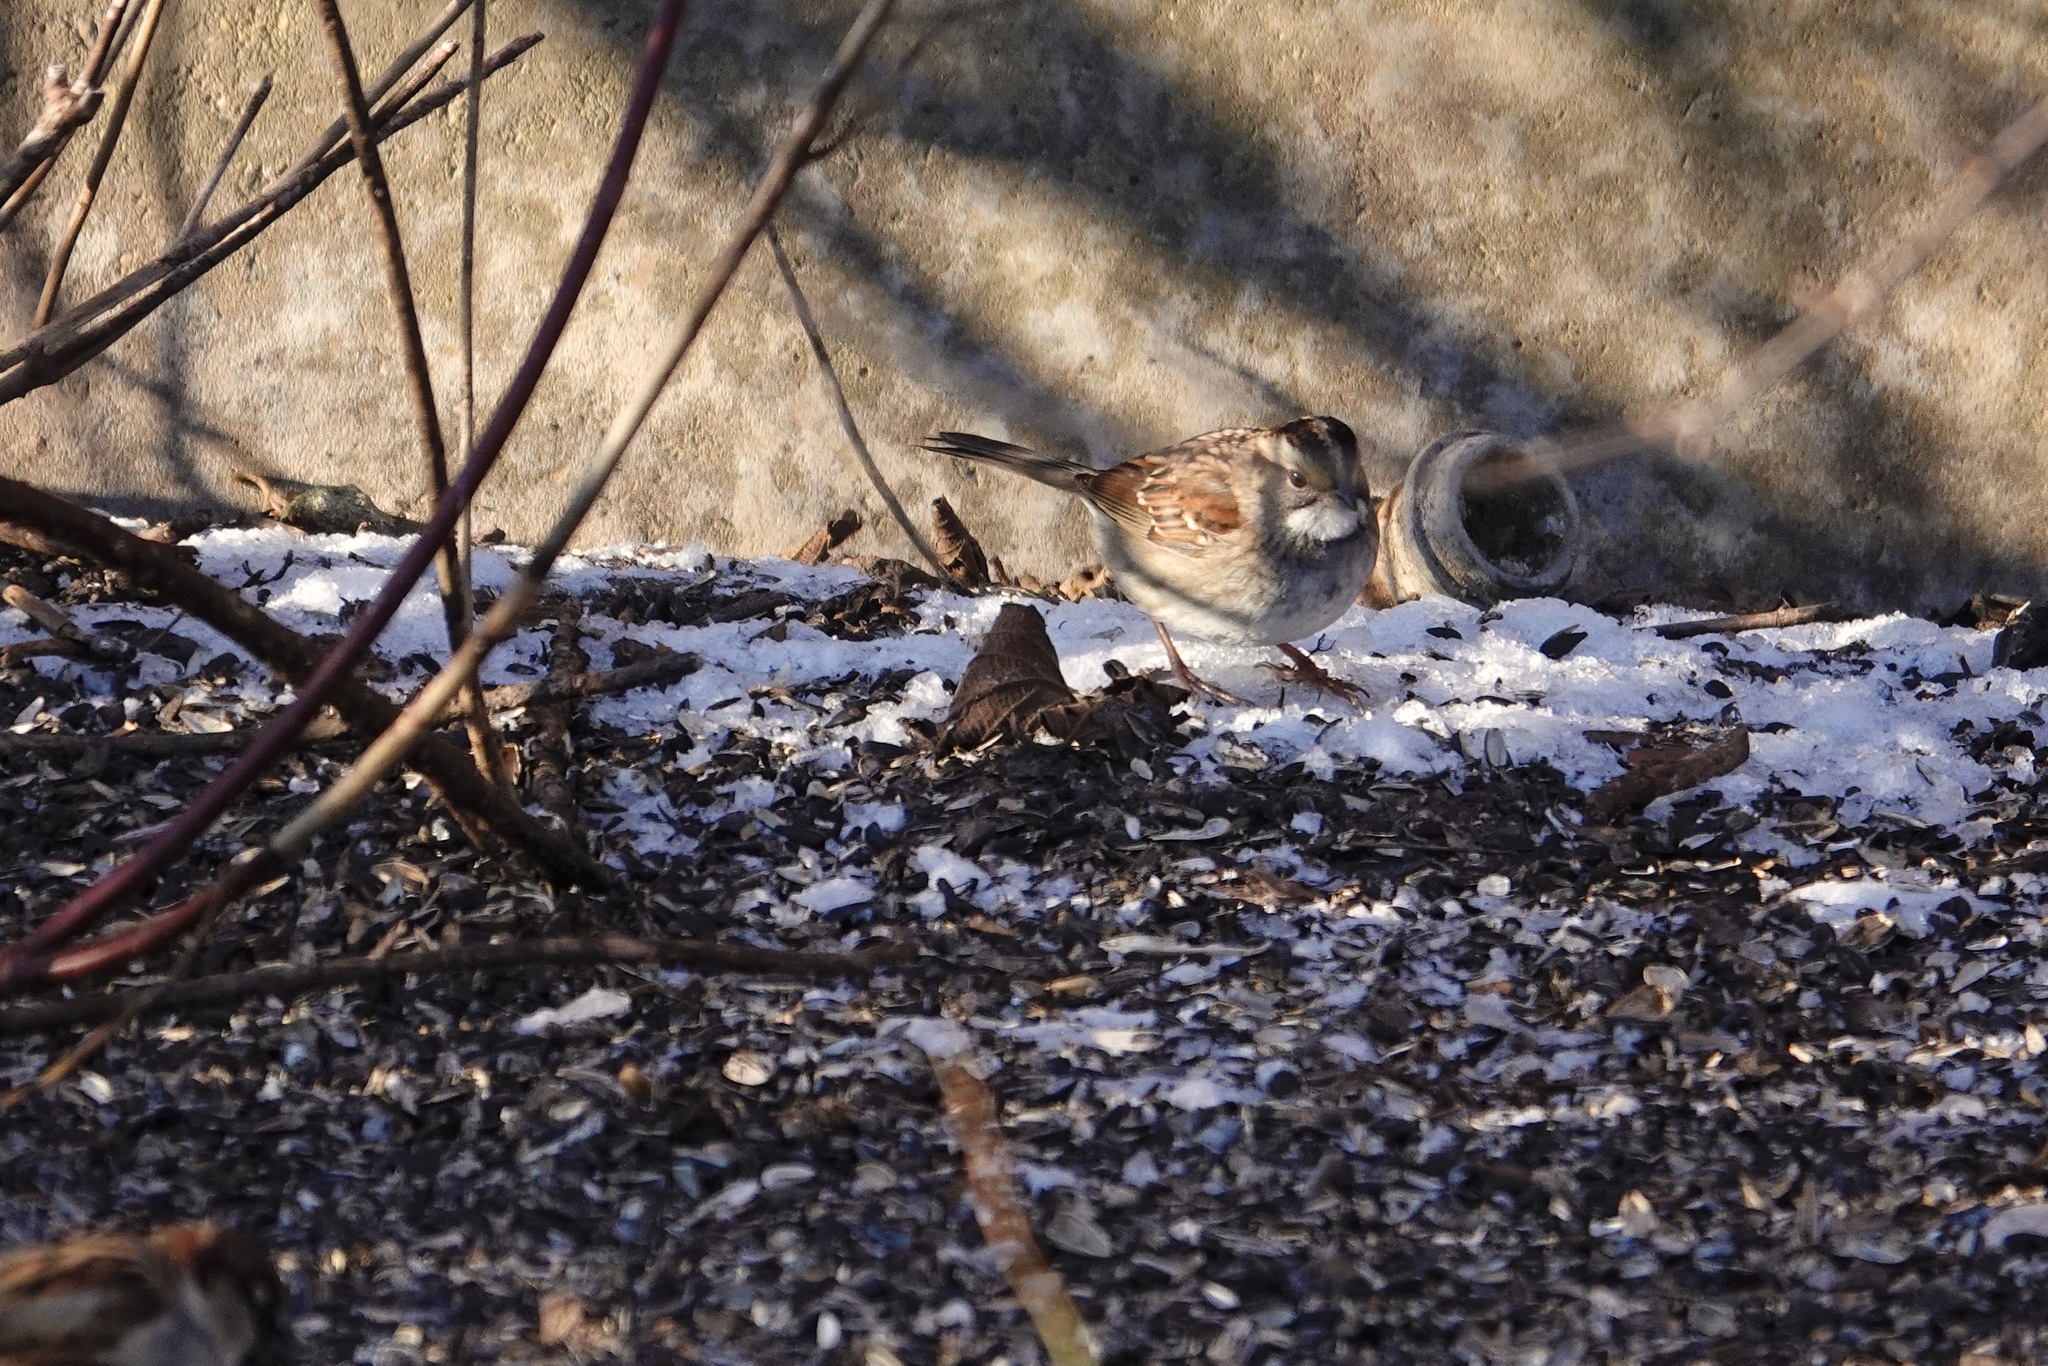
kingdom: Animalia
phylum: Chordata
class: Aves
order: Passeriformes
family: Passerellidae
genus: Zonotrichia
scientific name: Zonotrichia albicollis
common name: White-throated sparrow
